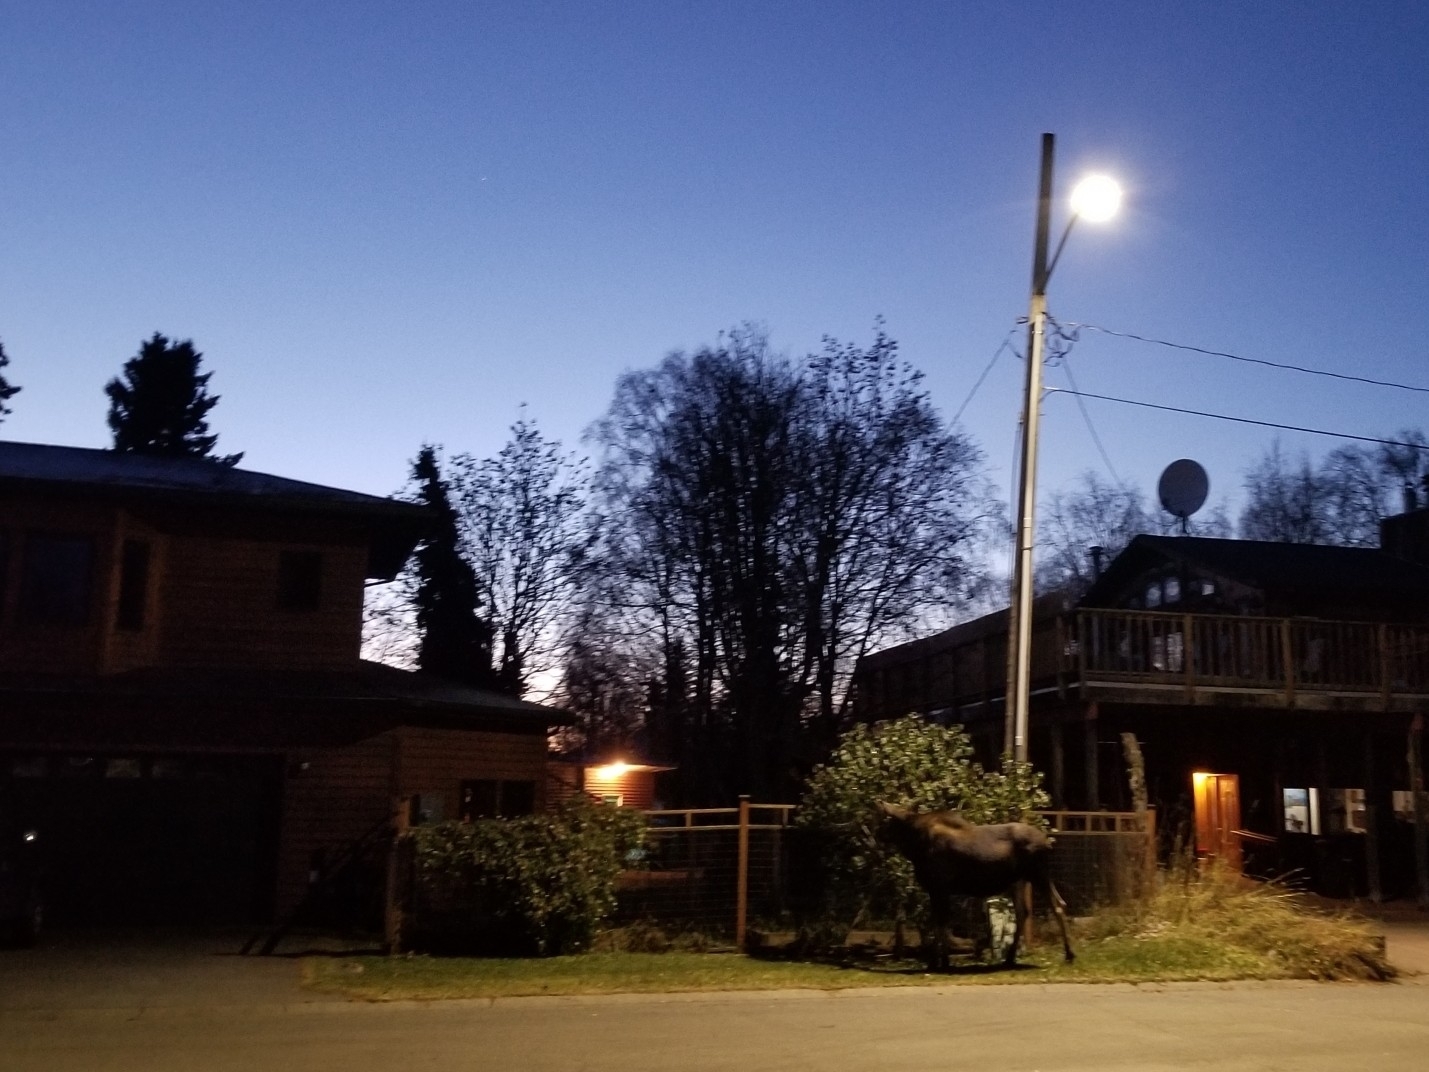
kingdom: Animalia
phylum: Chordata
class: Mammalia
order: Artiodactyla
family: Cervidae
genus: Alces
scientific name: Alces alces
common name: Moose
